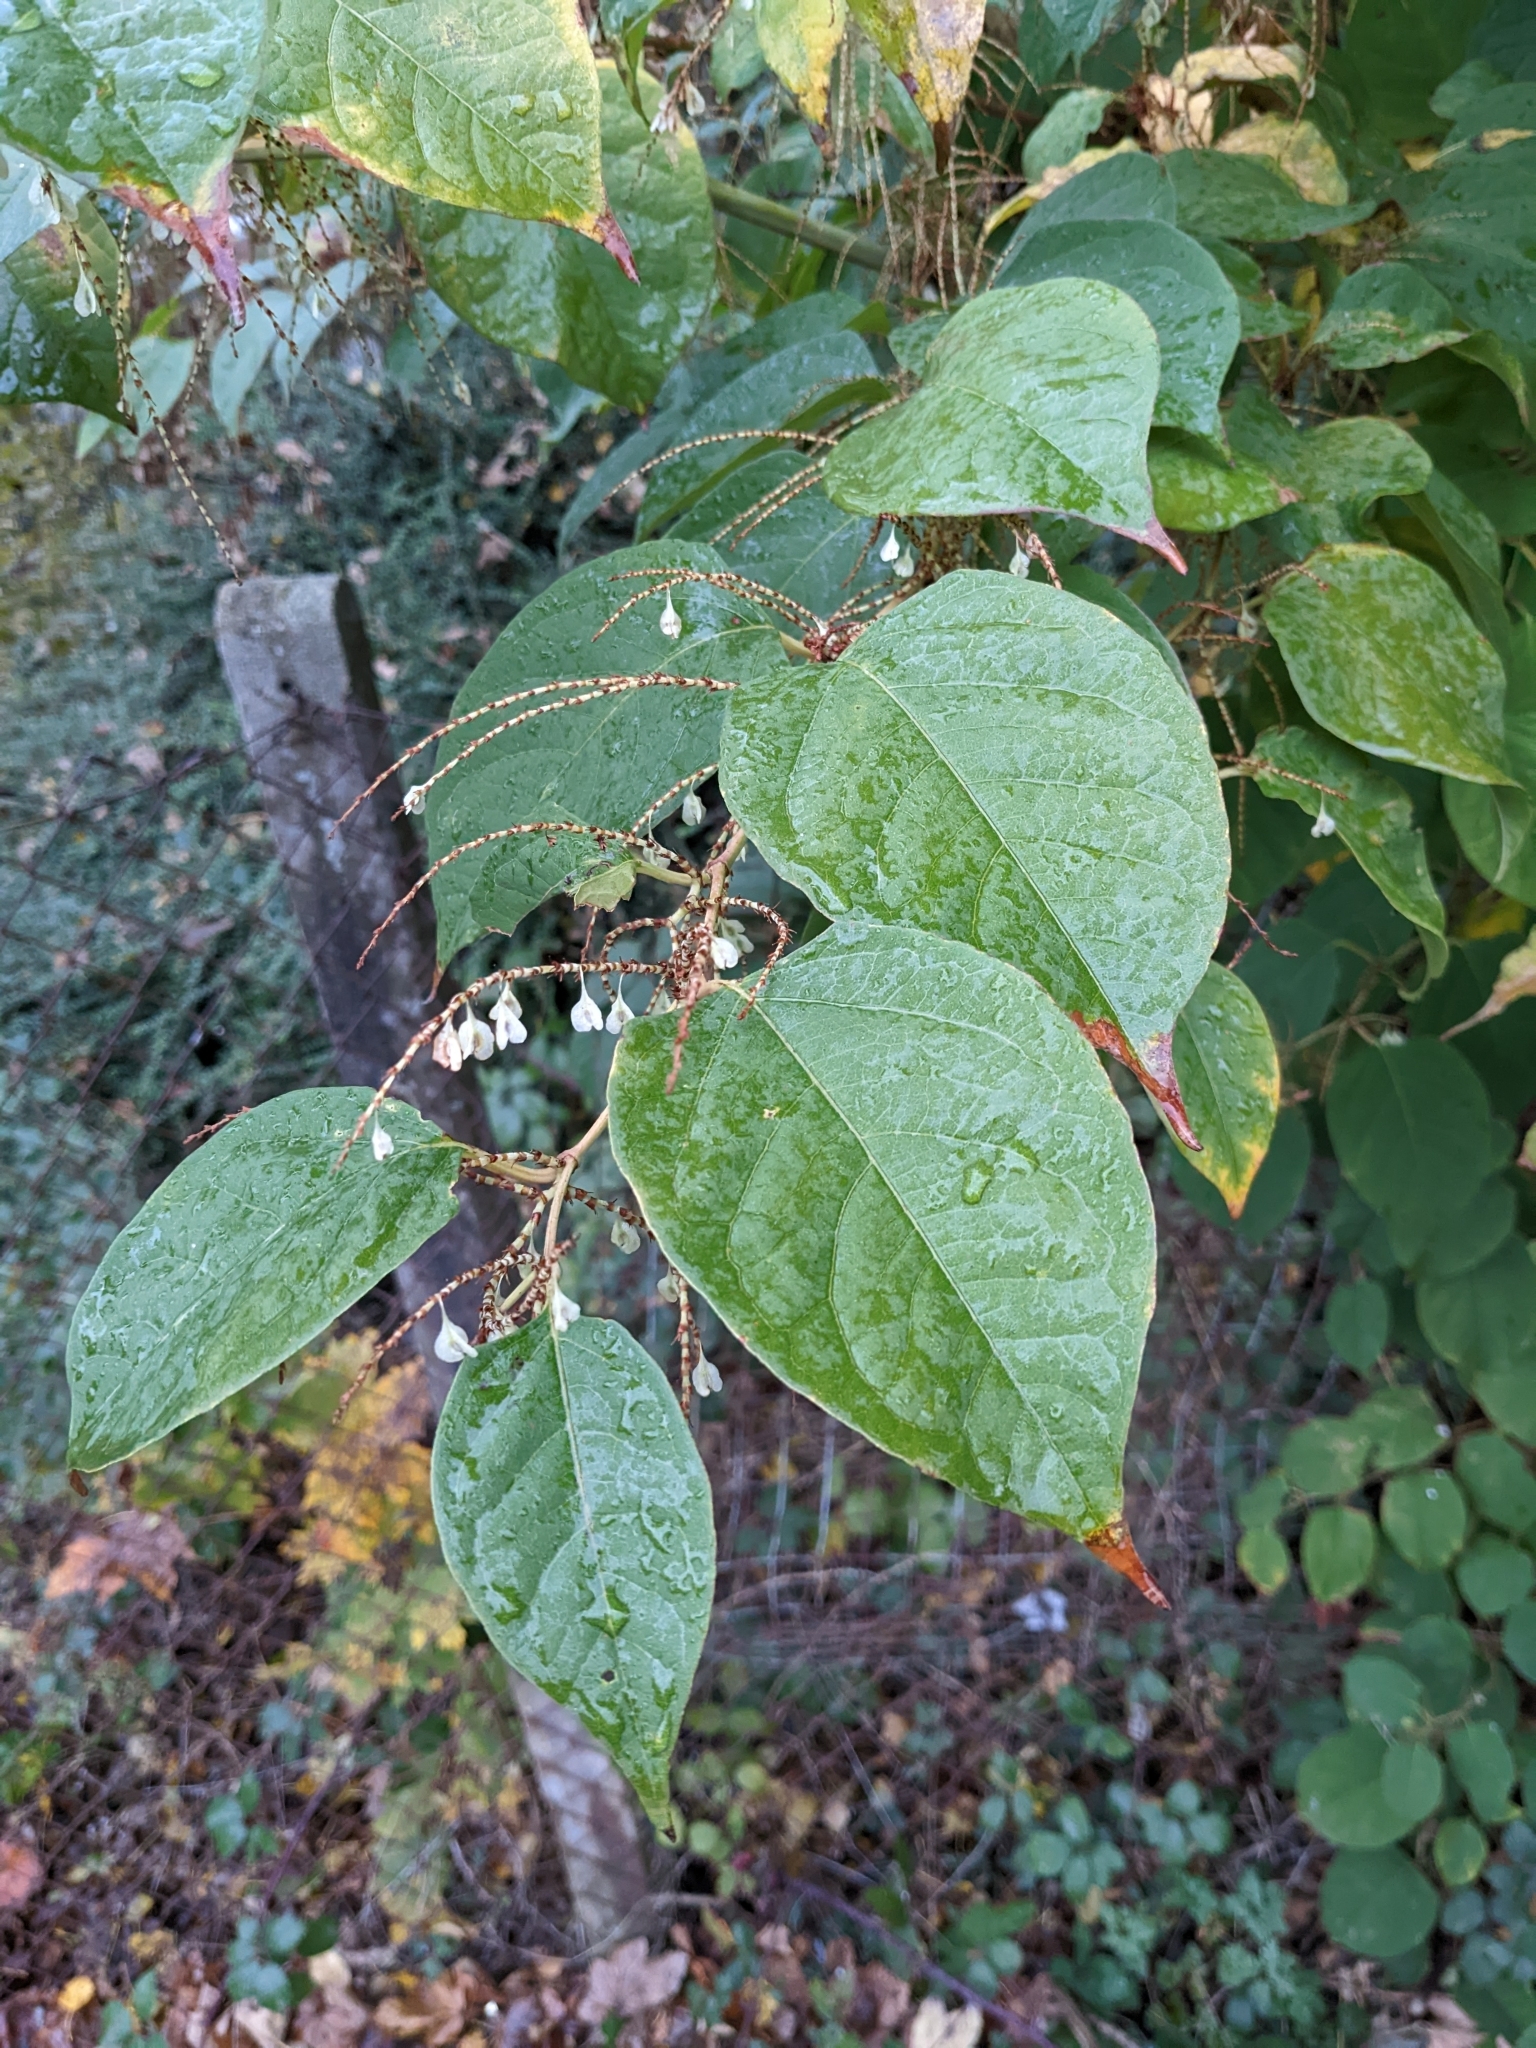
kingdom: Plantae
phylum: Tracheophyta
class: Magnoliopsida
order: Caryophyllales
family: Polygonaceae
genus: Reynoutria
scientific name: Reynoutria japonica
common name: Japanese knotweed
